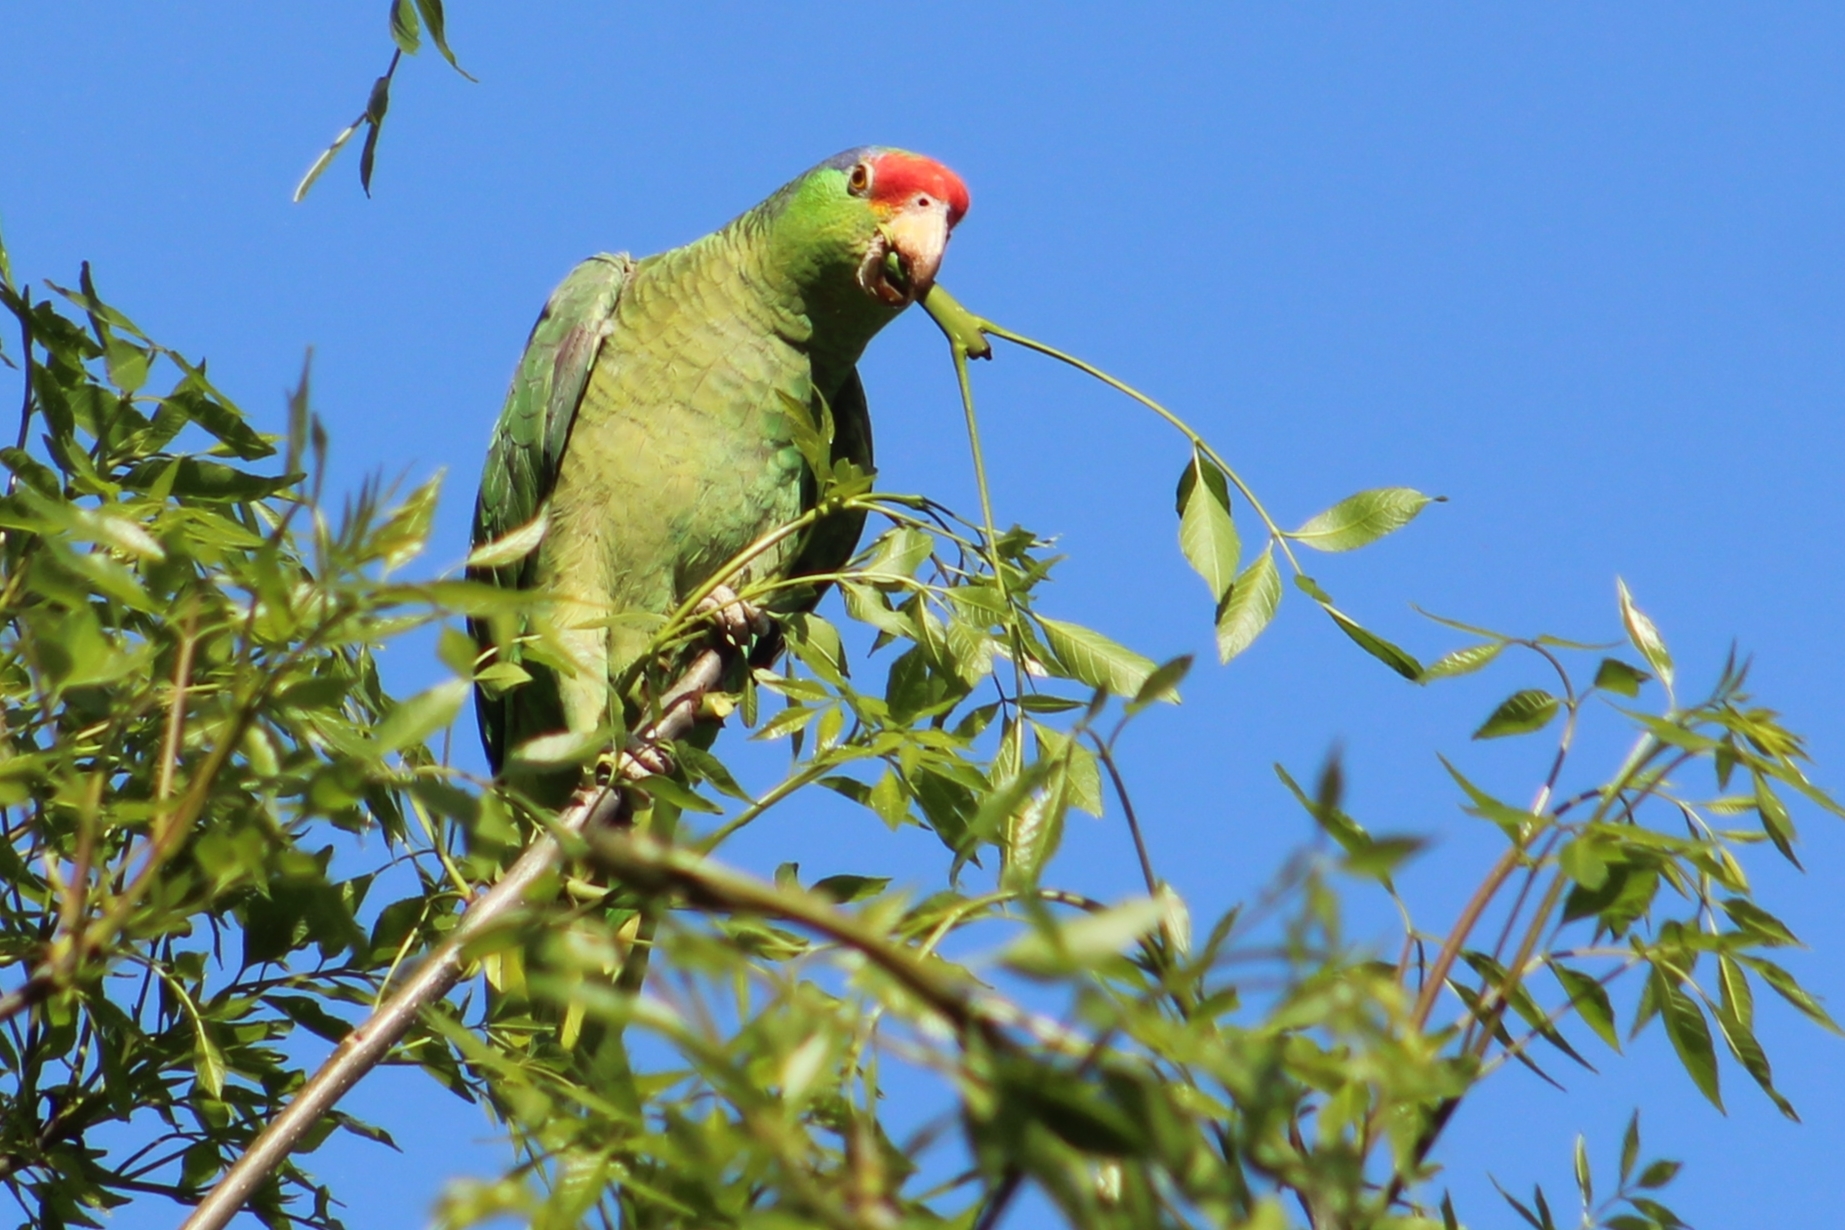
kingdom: Animalia
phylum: Chordata
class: Aves
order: Psittaciformes
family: Psittacidae
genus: Amazona
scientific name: Amazona viridigenalis
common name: Red-crowned amazon
